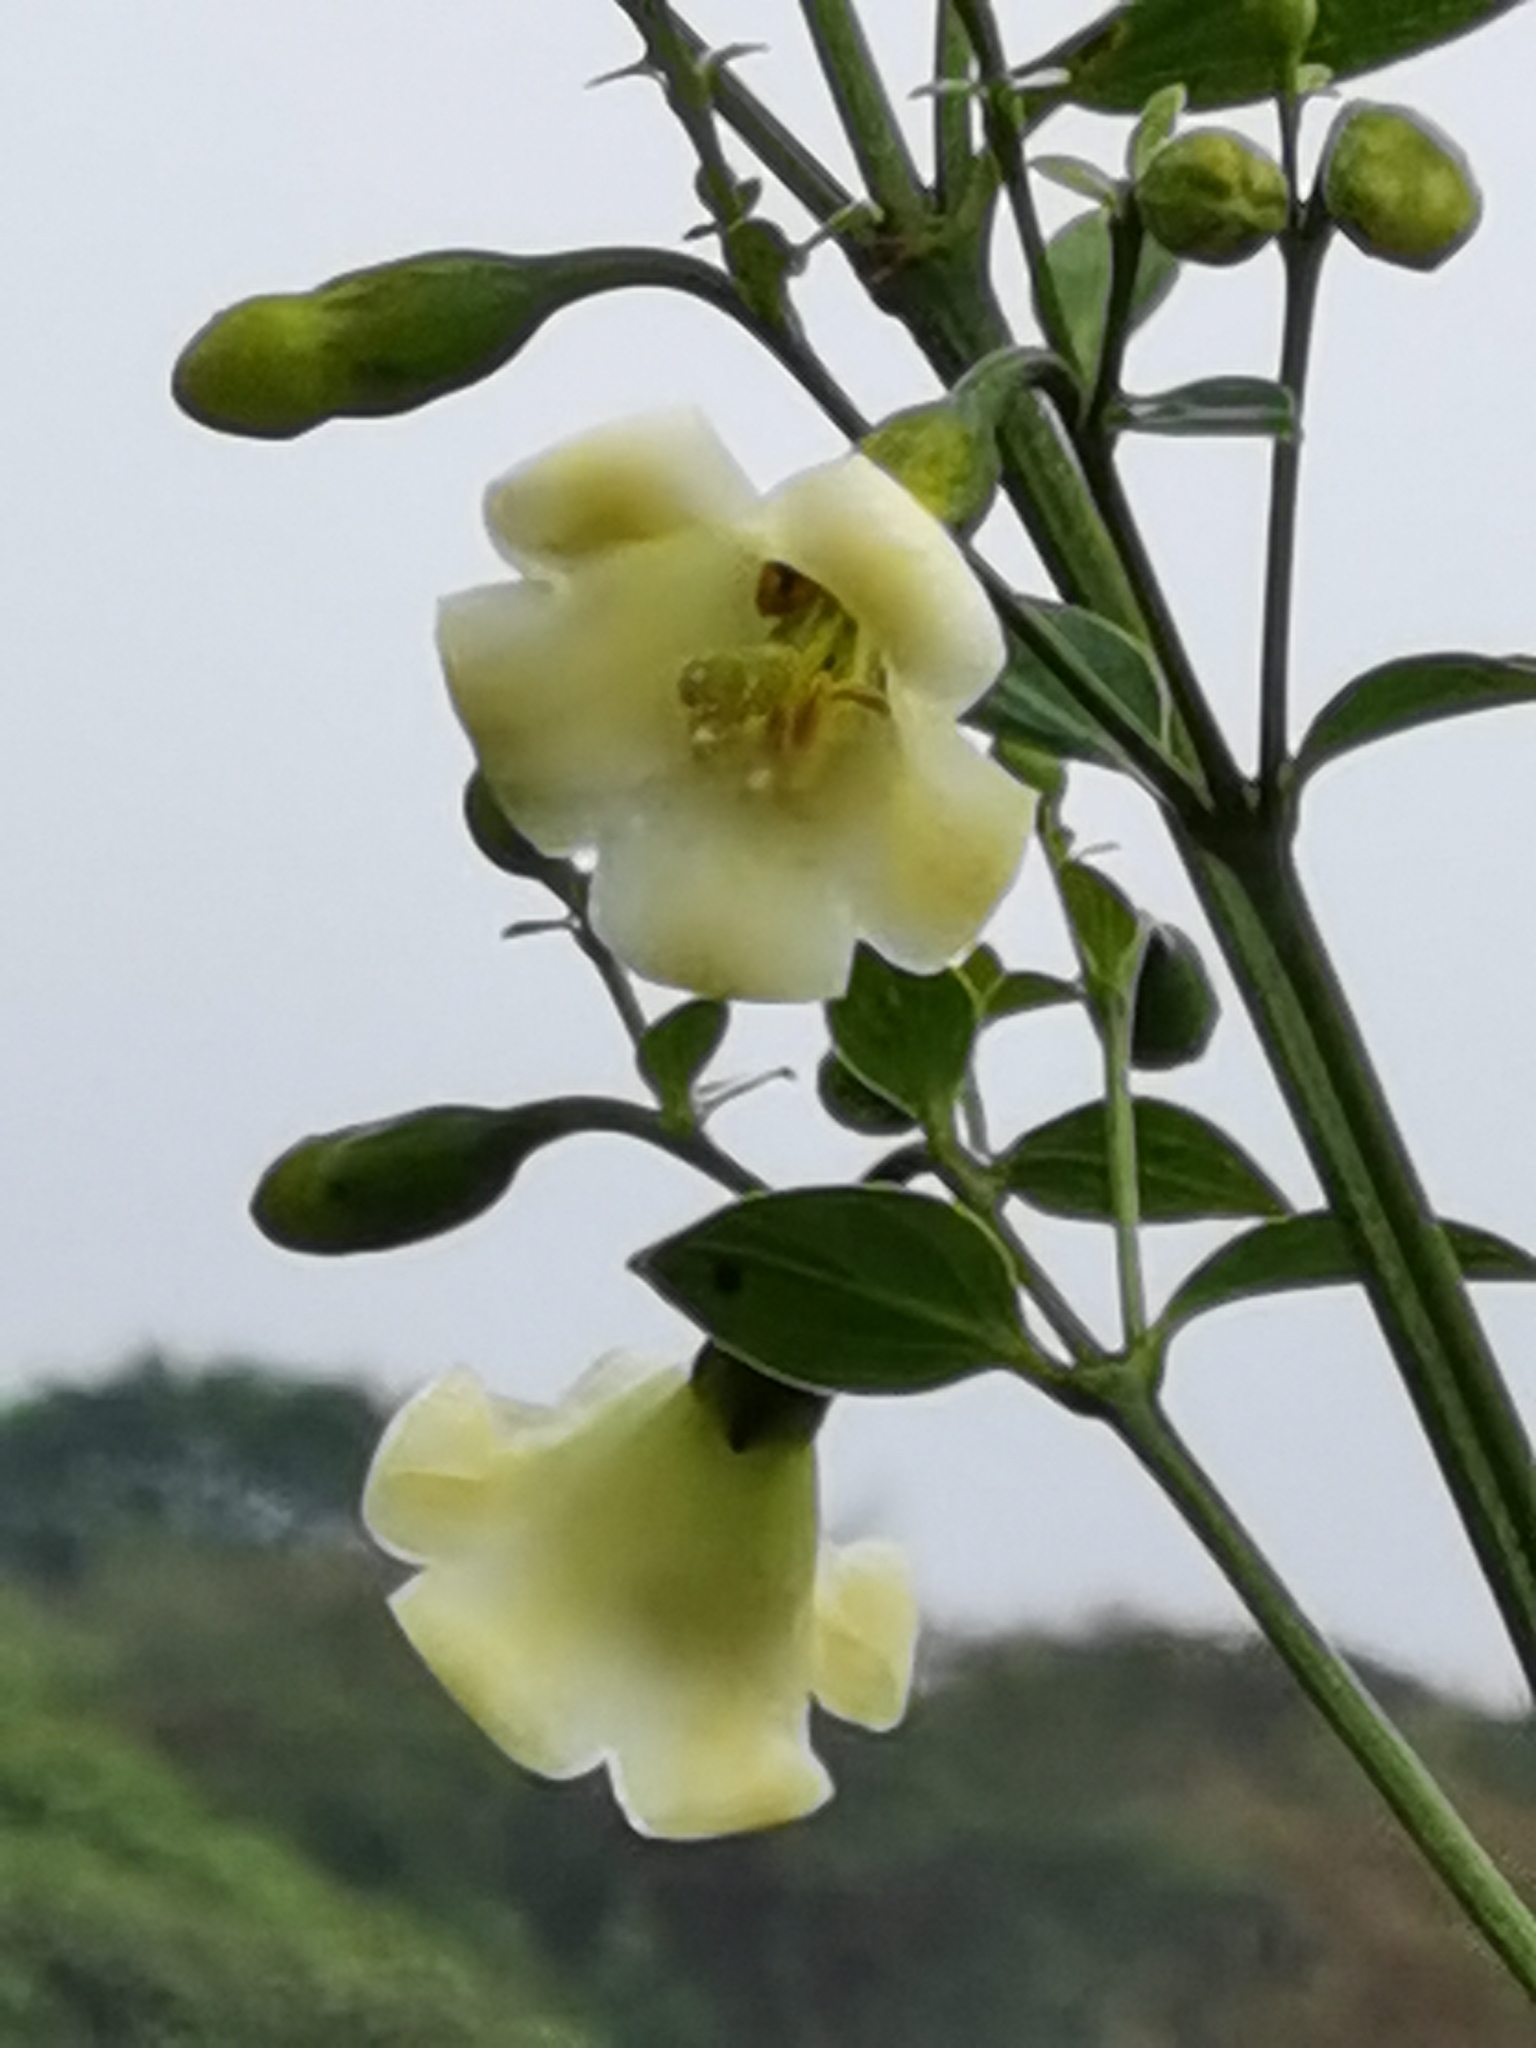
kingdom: Plantae
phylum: Tracheophyta
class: Magnoliopsida
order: Gentianales
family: Gentianaceae
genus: Macrocarpaea
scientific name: Macrocarpaea valerioi
